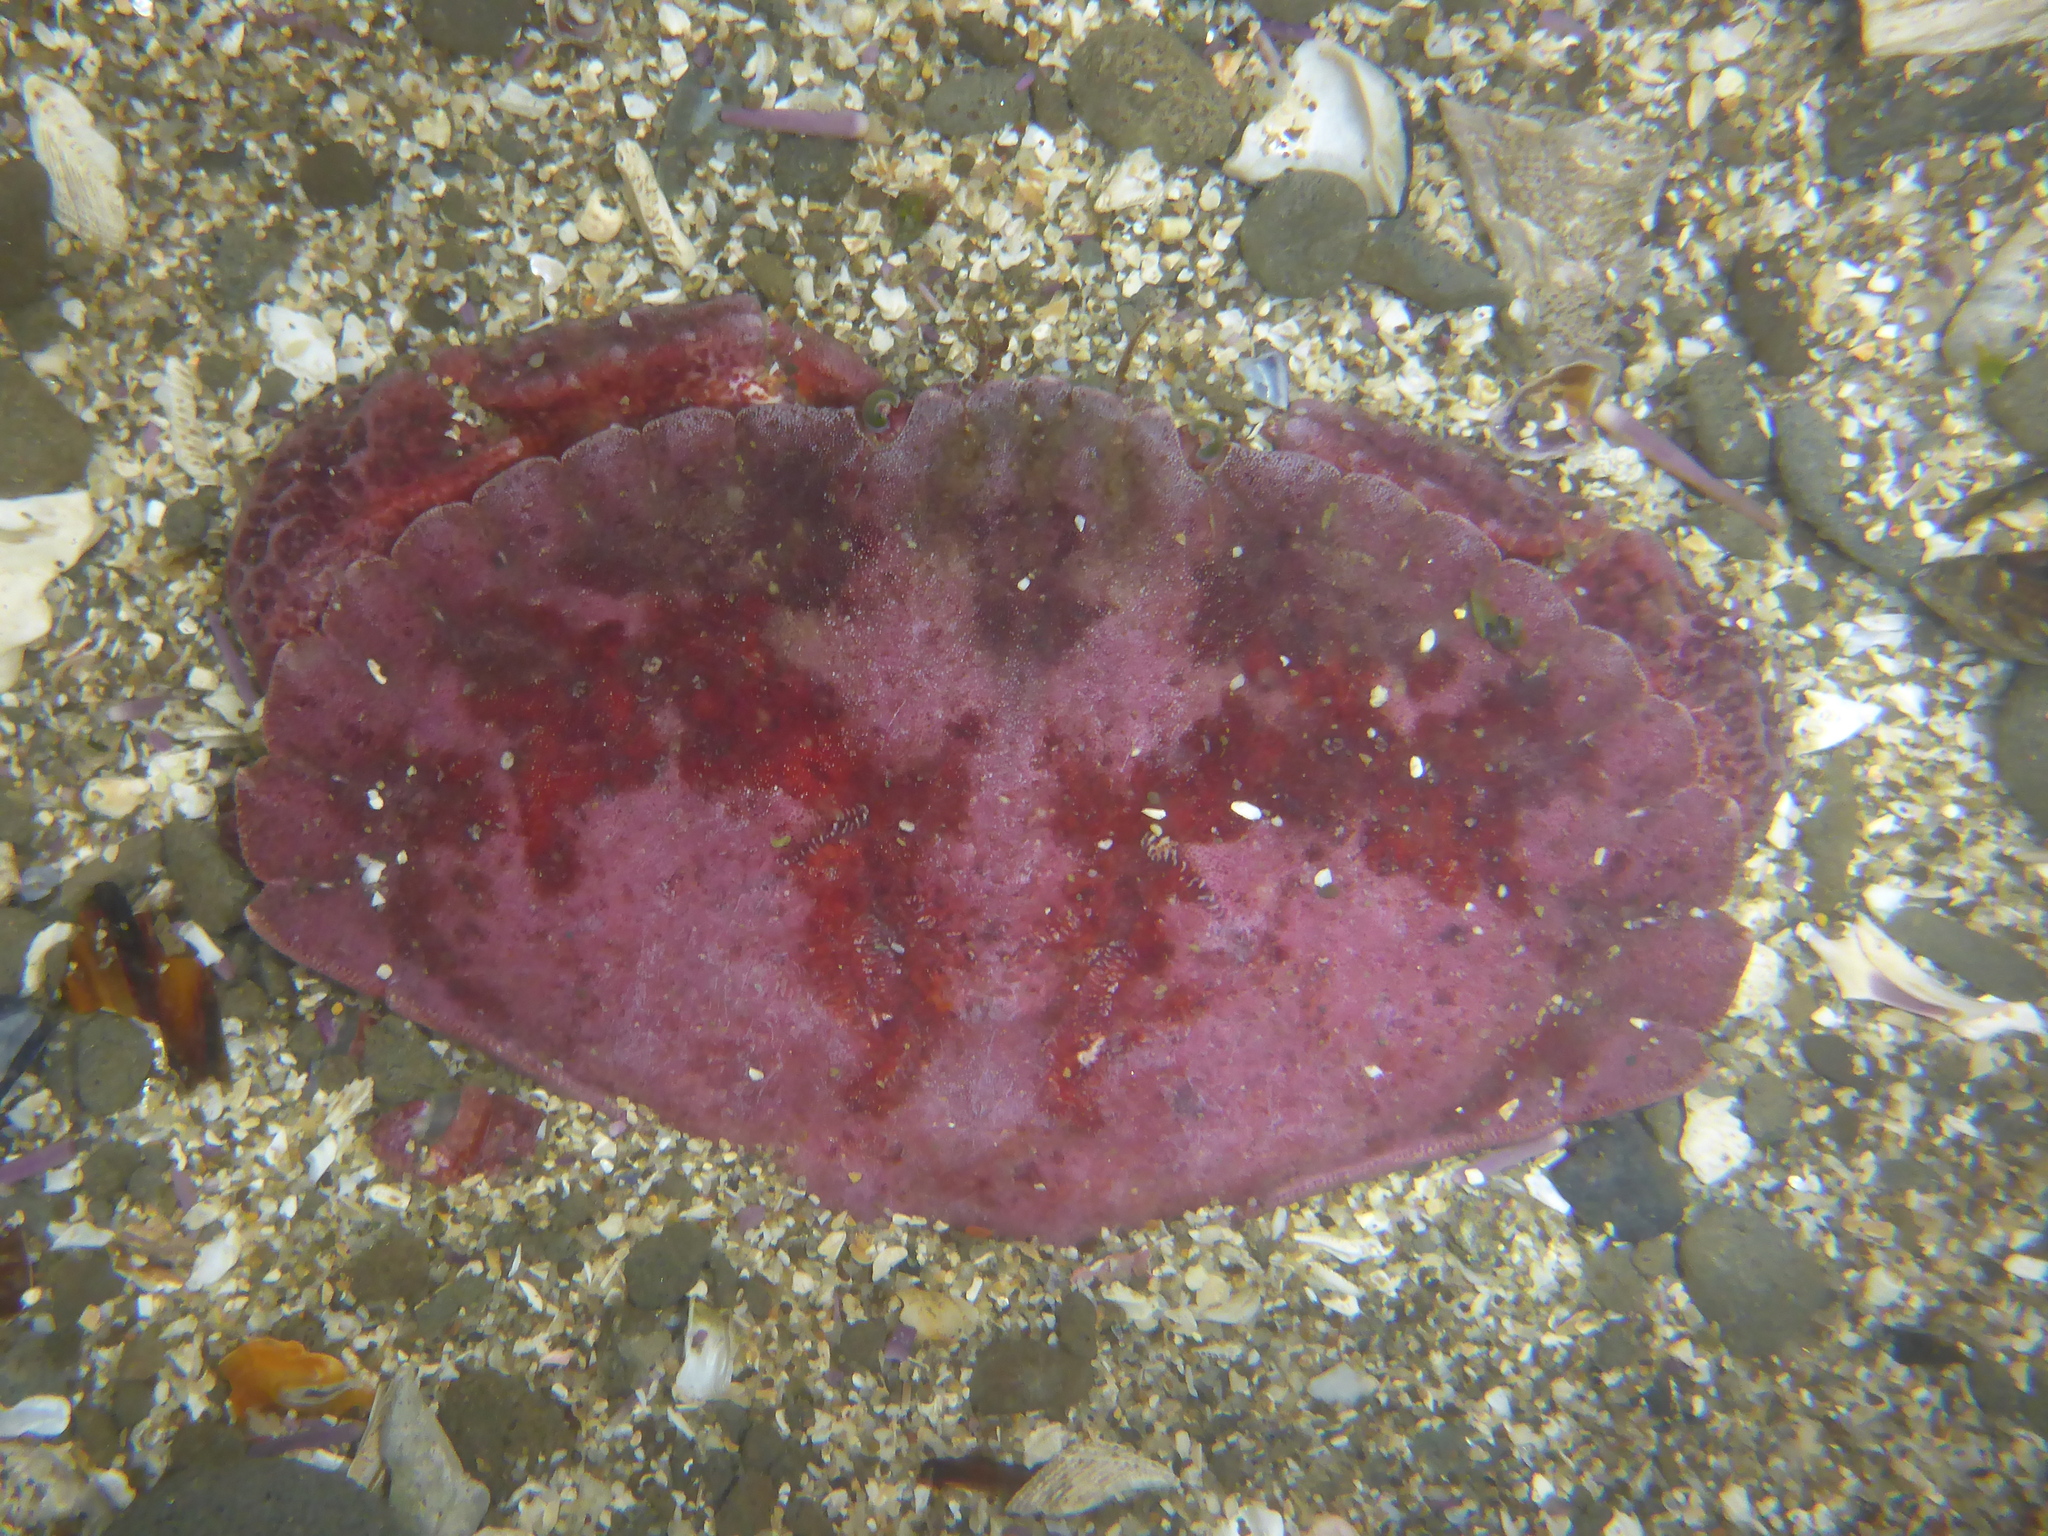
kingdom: Animalia
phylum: Arthropoda
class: Malacostraca
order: Decapoda
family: Cancridae
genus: Cancer
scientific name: Cancer productus
